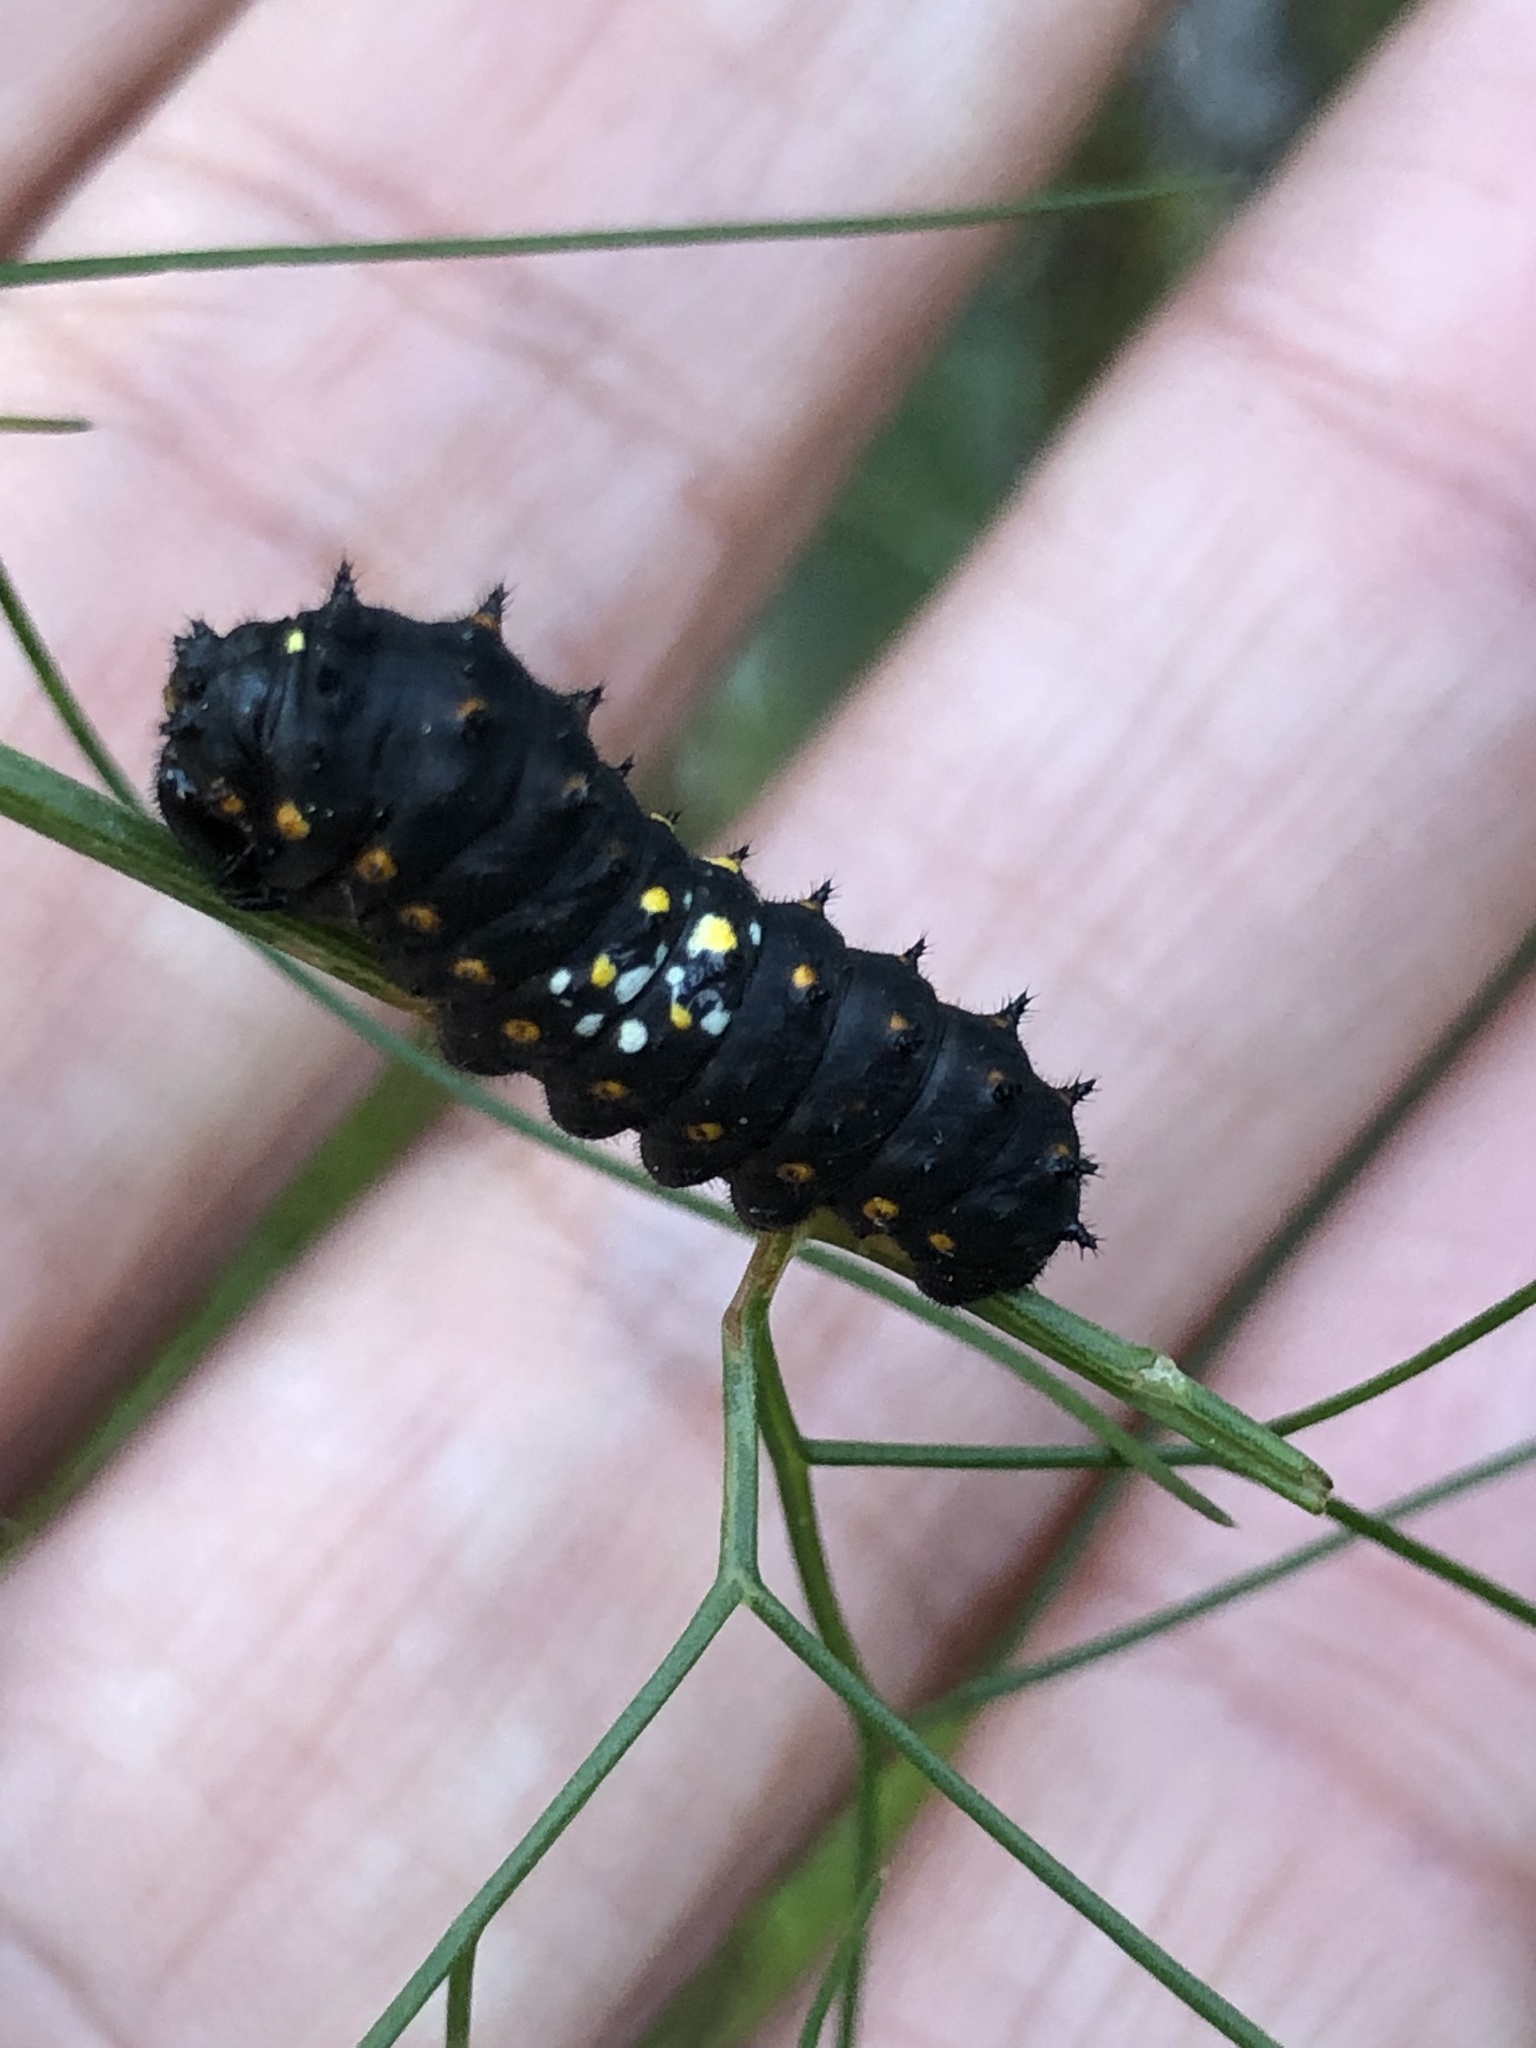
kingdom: Animalia
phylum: Arthropoda
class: Insecta
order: Lepidoptera
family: Papilionidae
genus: Papilio
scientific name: Papilio zelicaon
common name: Anise swallowtail
